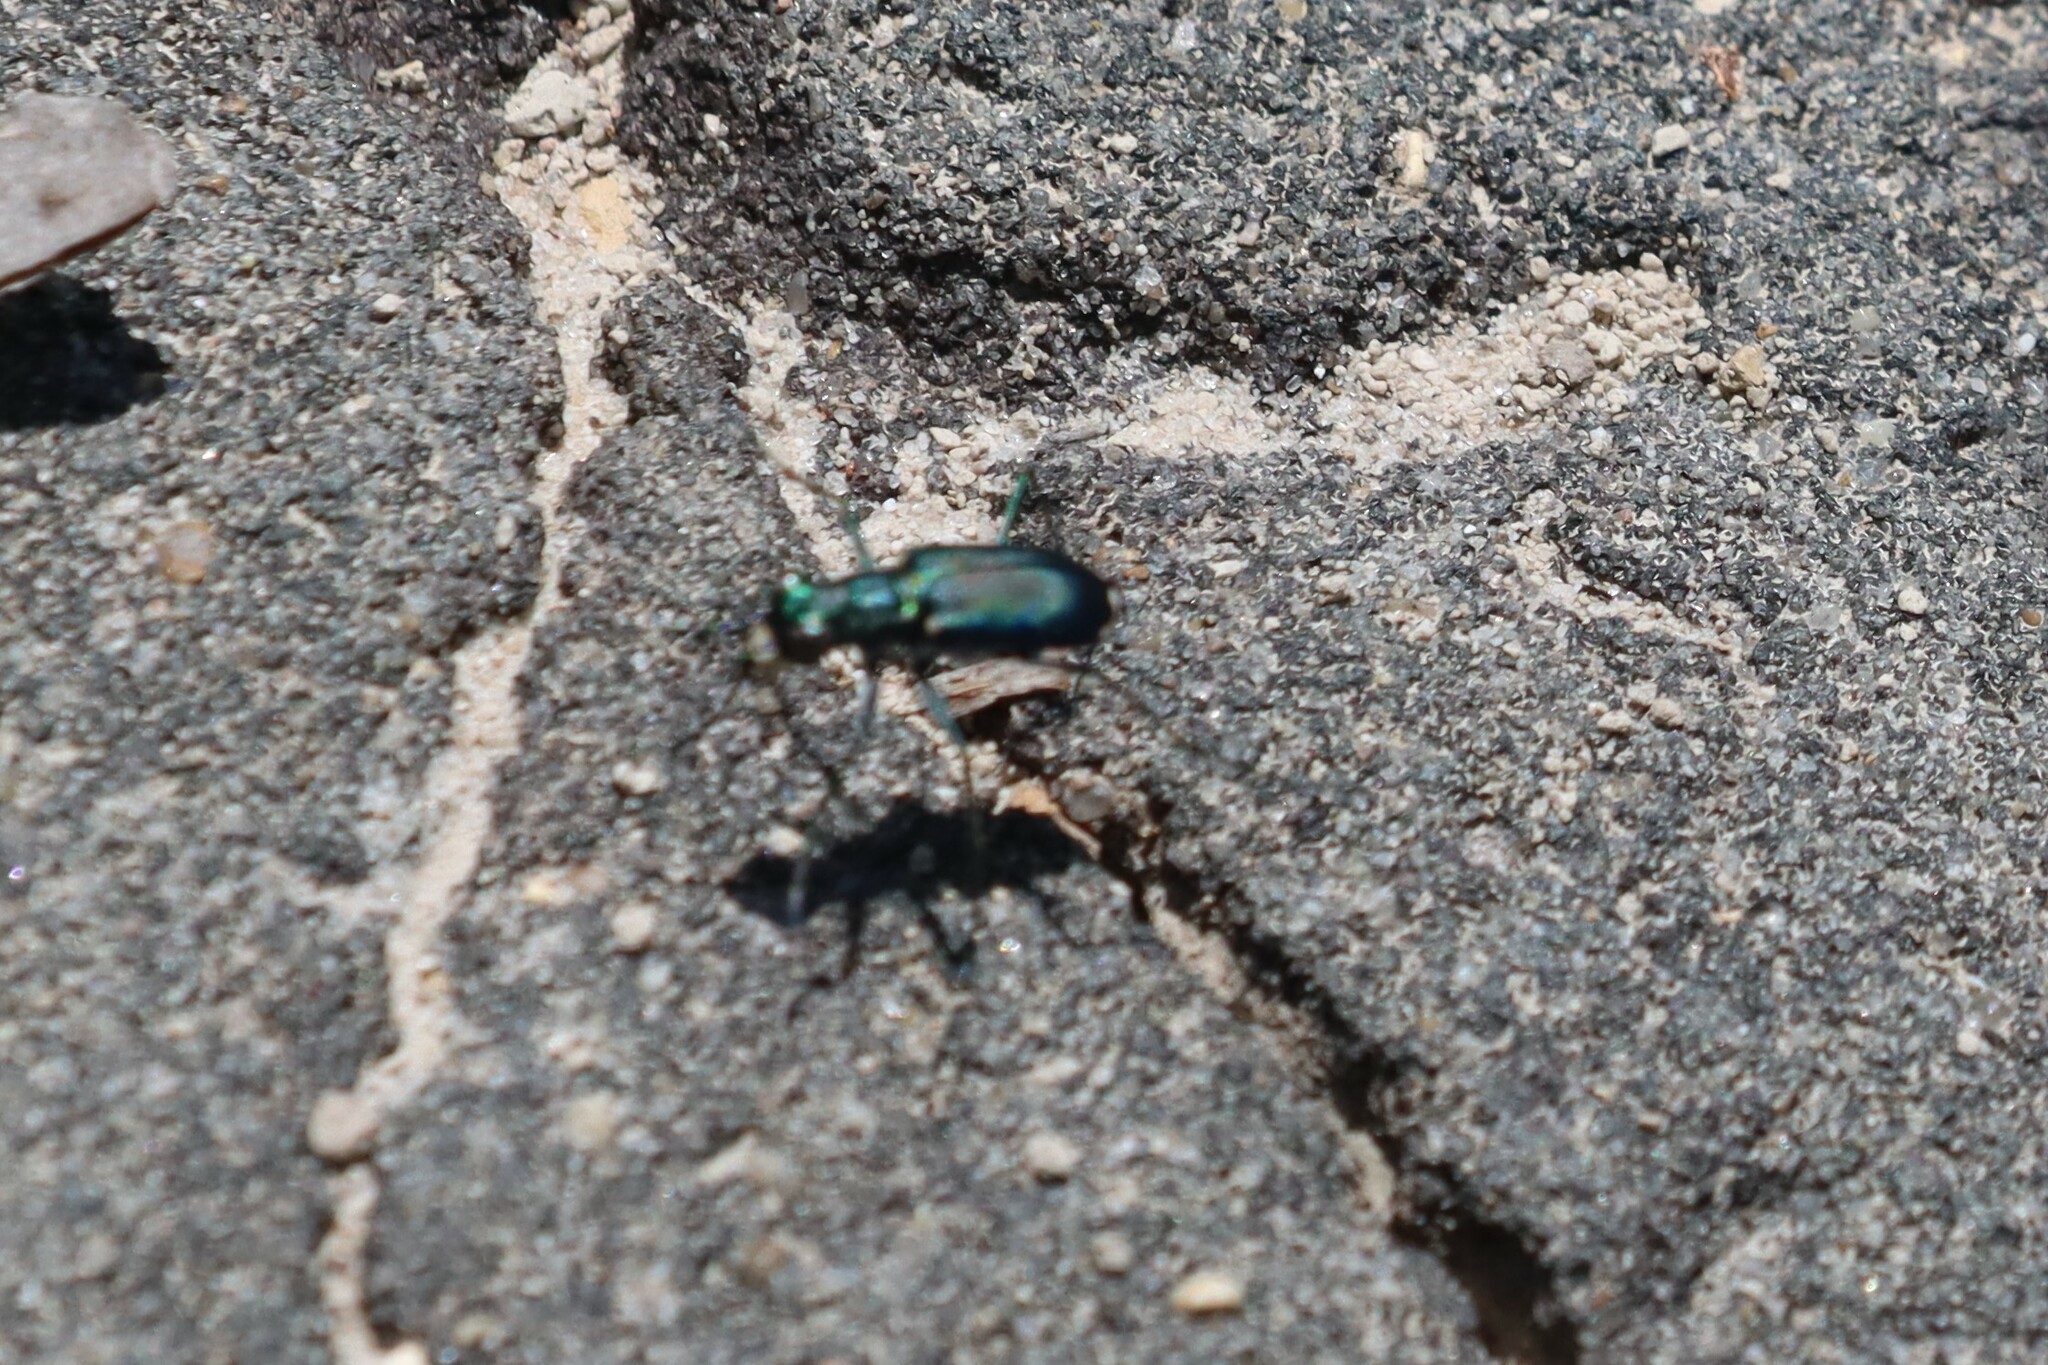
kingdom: Animalia
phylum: Arthropoda
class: Insecta
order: Coleoptera
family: Carabidae
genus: Cicindela
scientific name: Cicindela rufiventris
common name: Eastern red-bellied tiger beetle
